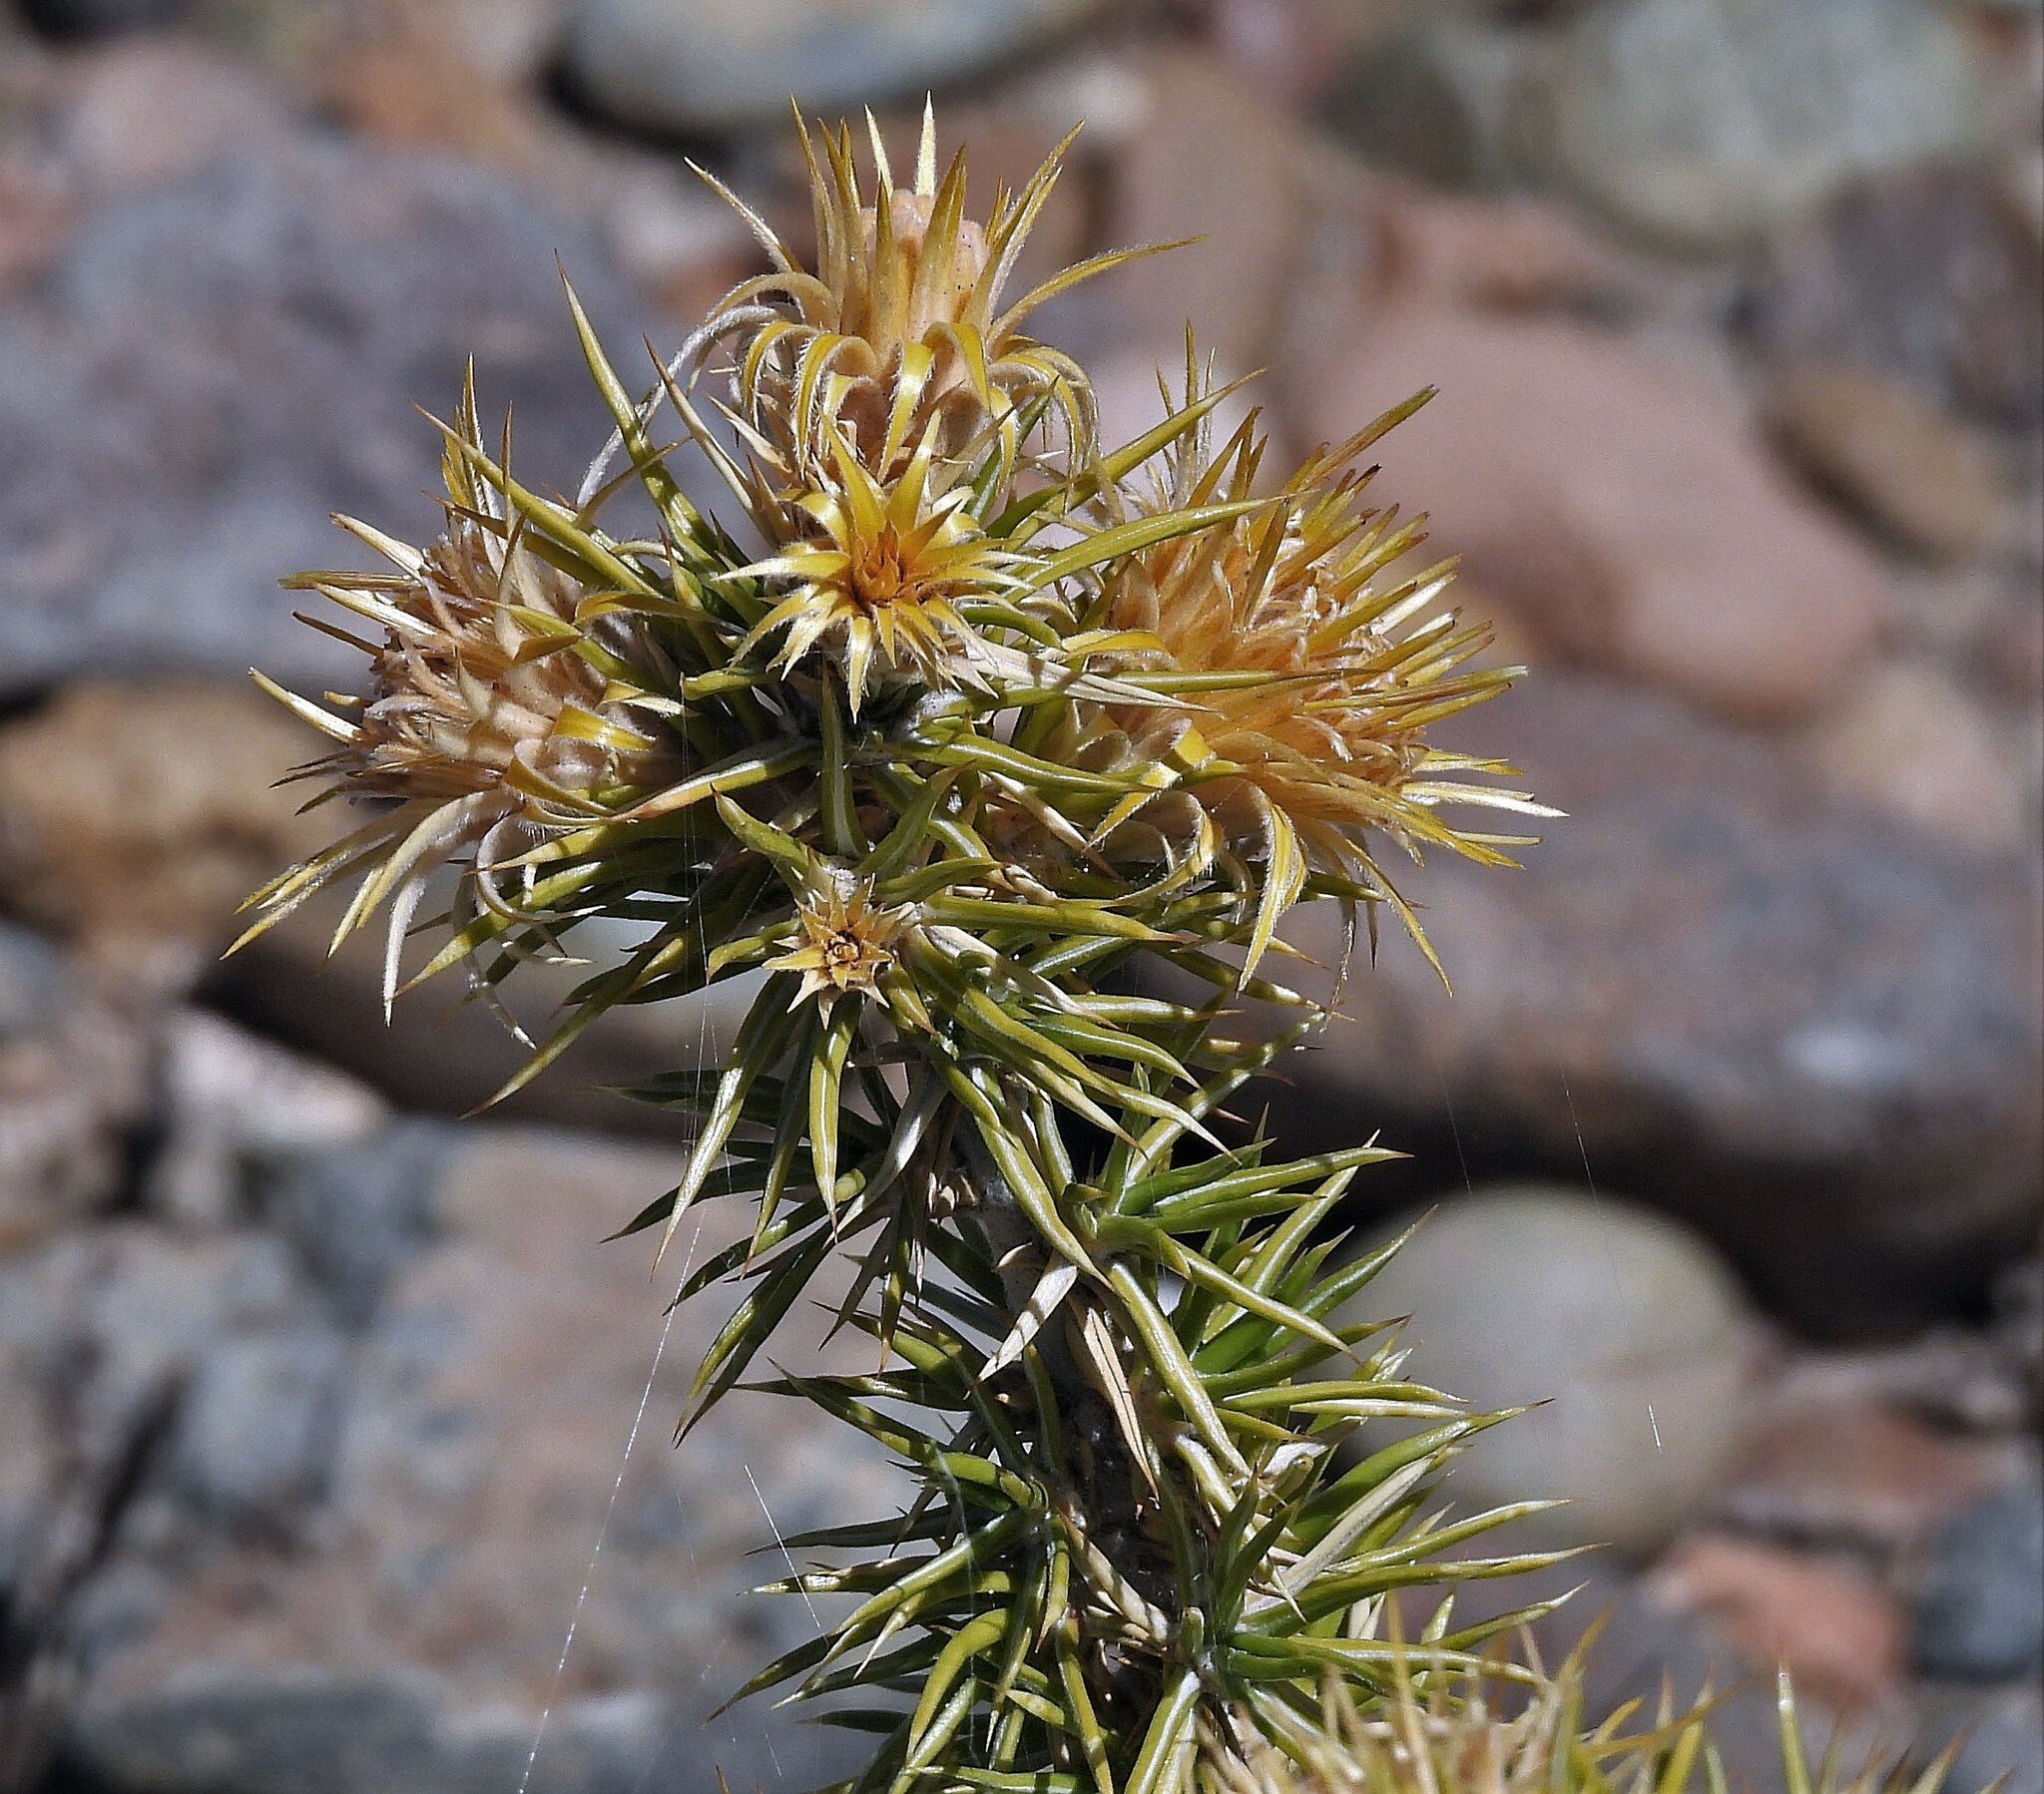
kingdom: Plantae
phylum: Tracheophyta
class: Magnoliopsida
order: Asterales
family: Asteraceae
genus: Chuquiraga
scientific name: Chuquiraga erinacea
